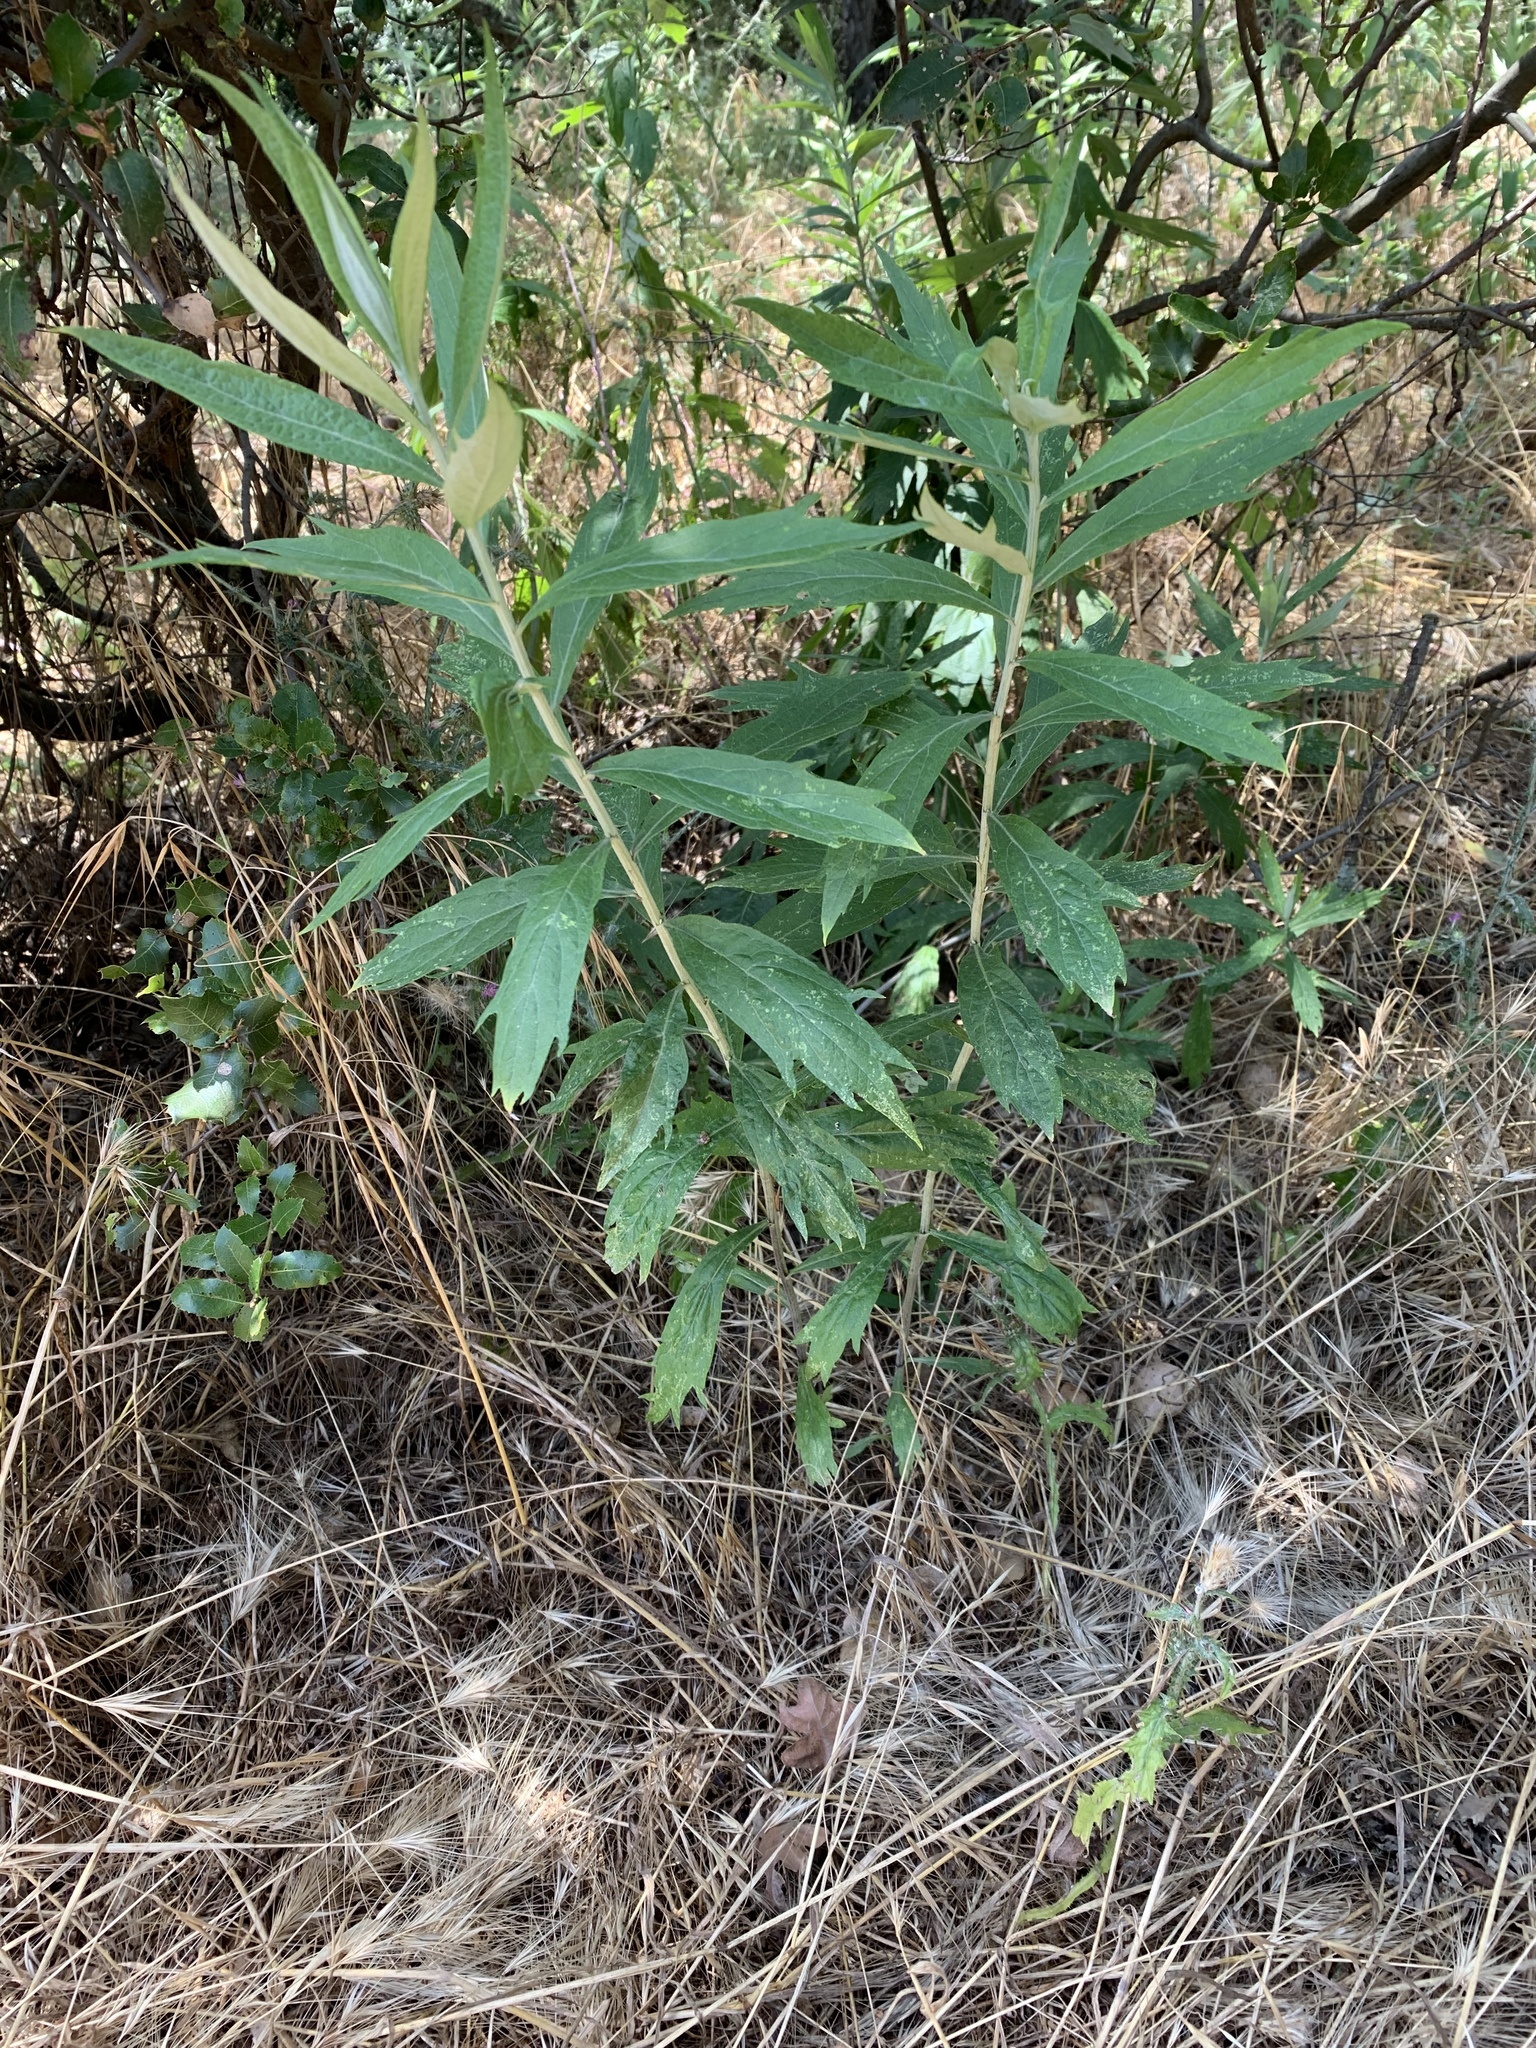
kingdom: Plantae
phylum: Tracheophyta
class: Magnoliopsida
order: Asterales
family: Asteraceae
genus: Artemisia
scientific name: Artemisia douglasiana
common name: Northwest mugwort
